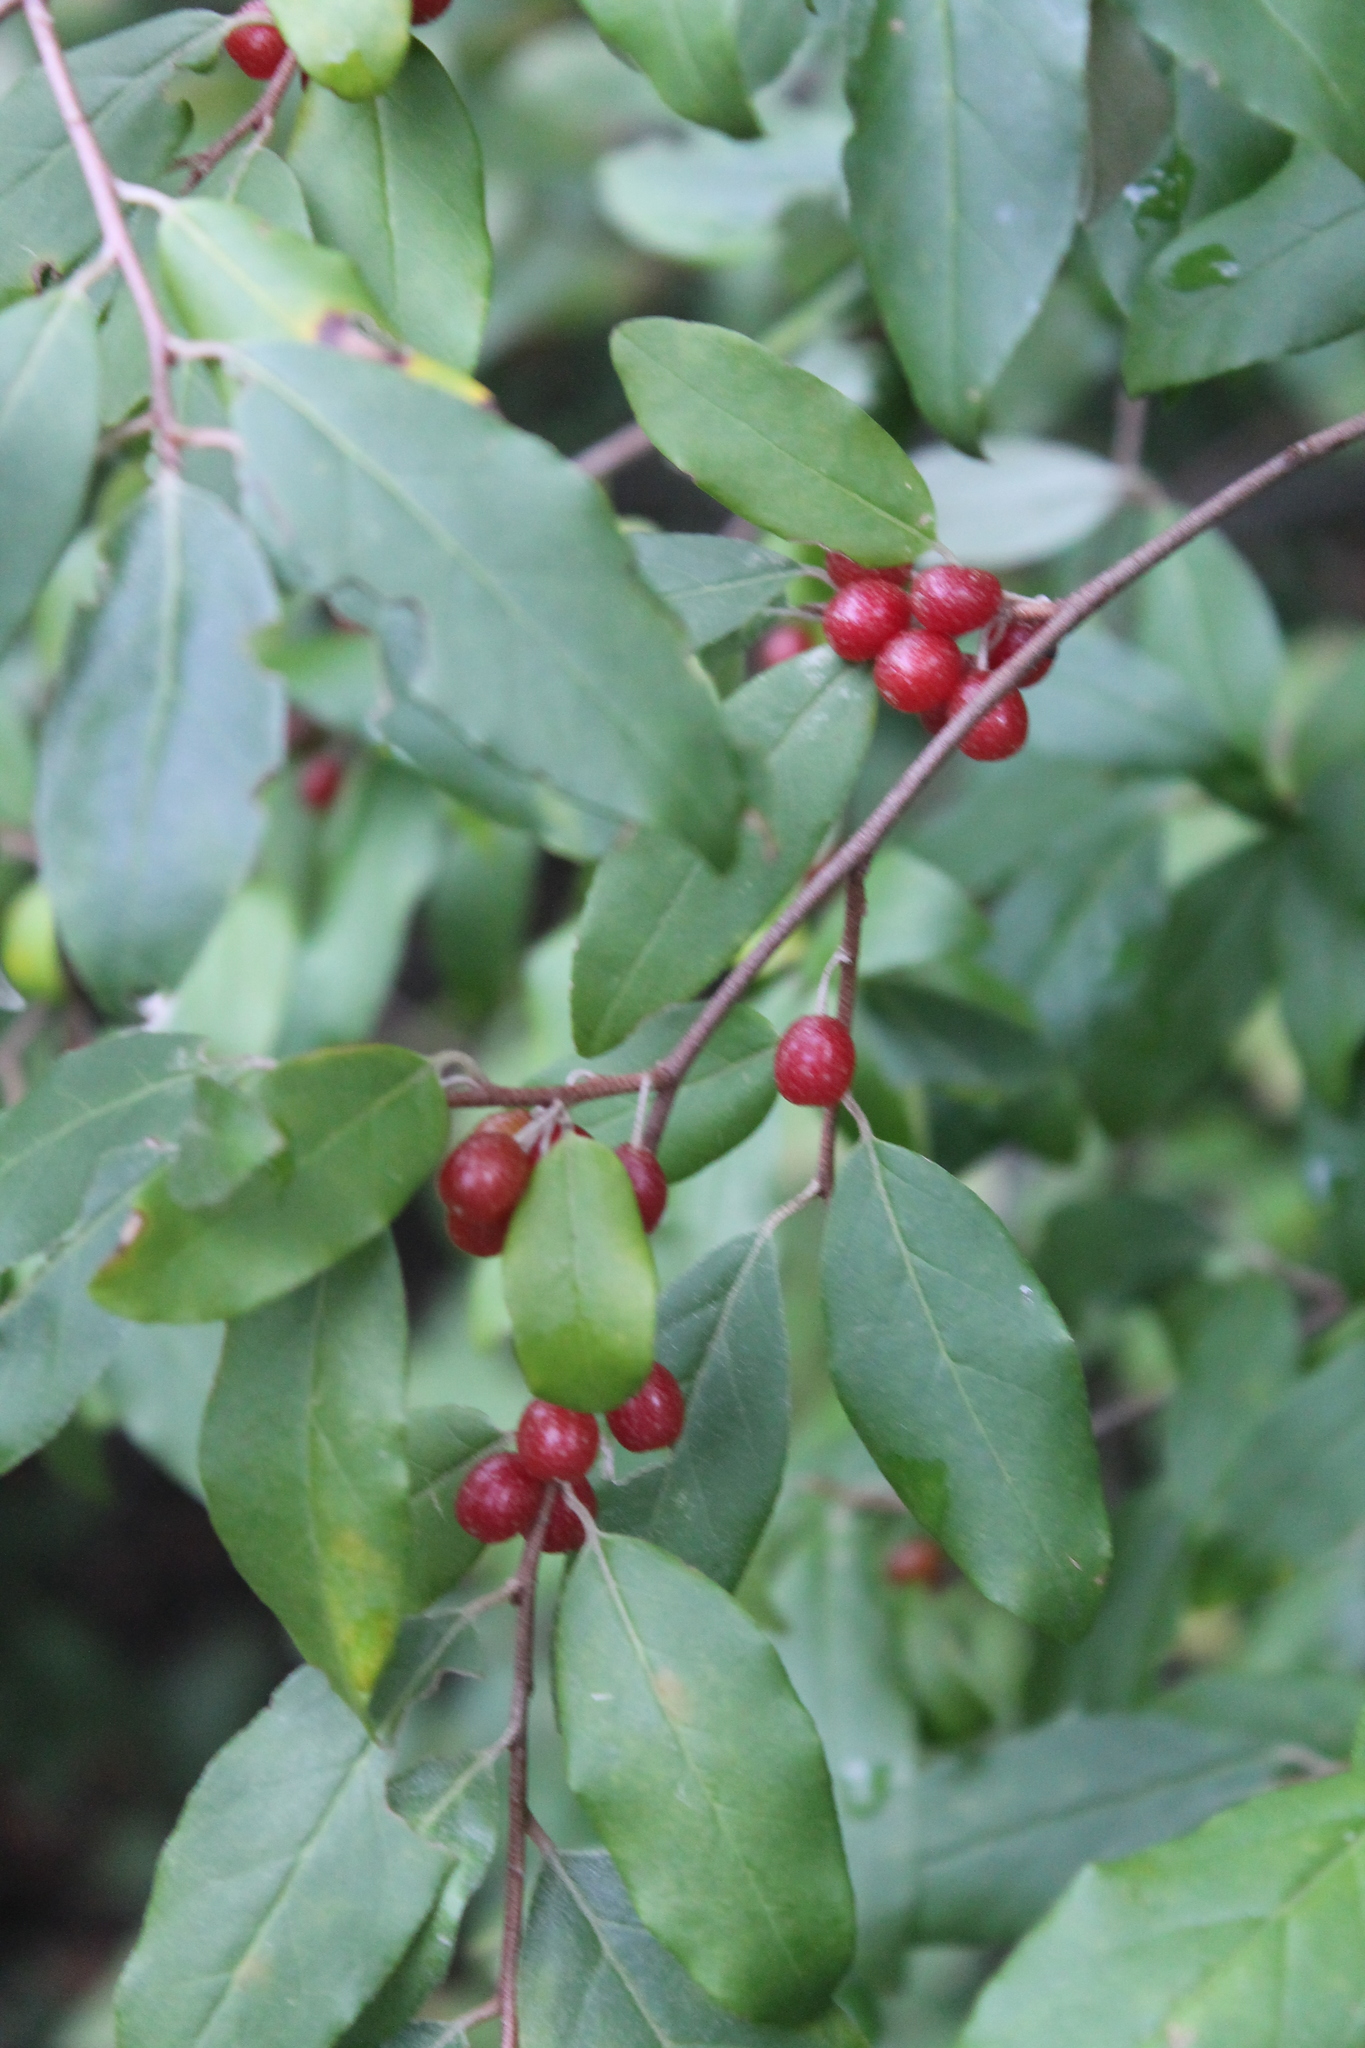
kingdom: Plantae
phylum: Tracheophyta
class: Magnoliopsida
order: Rosales
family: Elaeagnaceae
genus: Elaeagnus
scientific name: Elaeagnus umbellata
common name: Autumn olive
